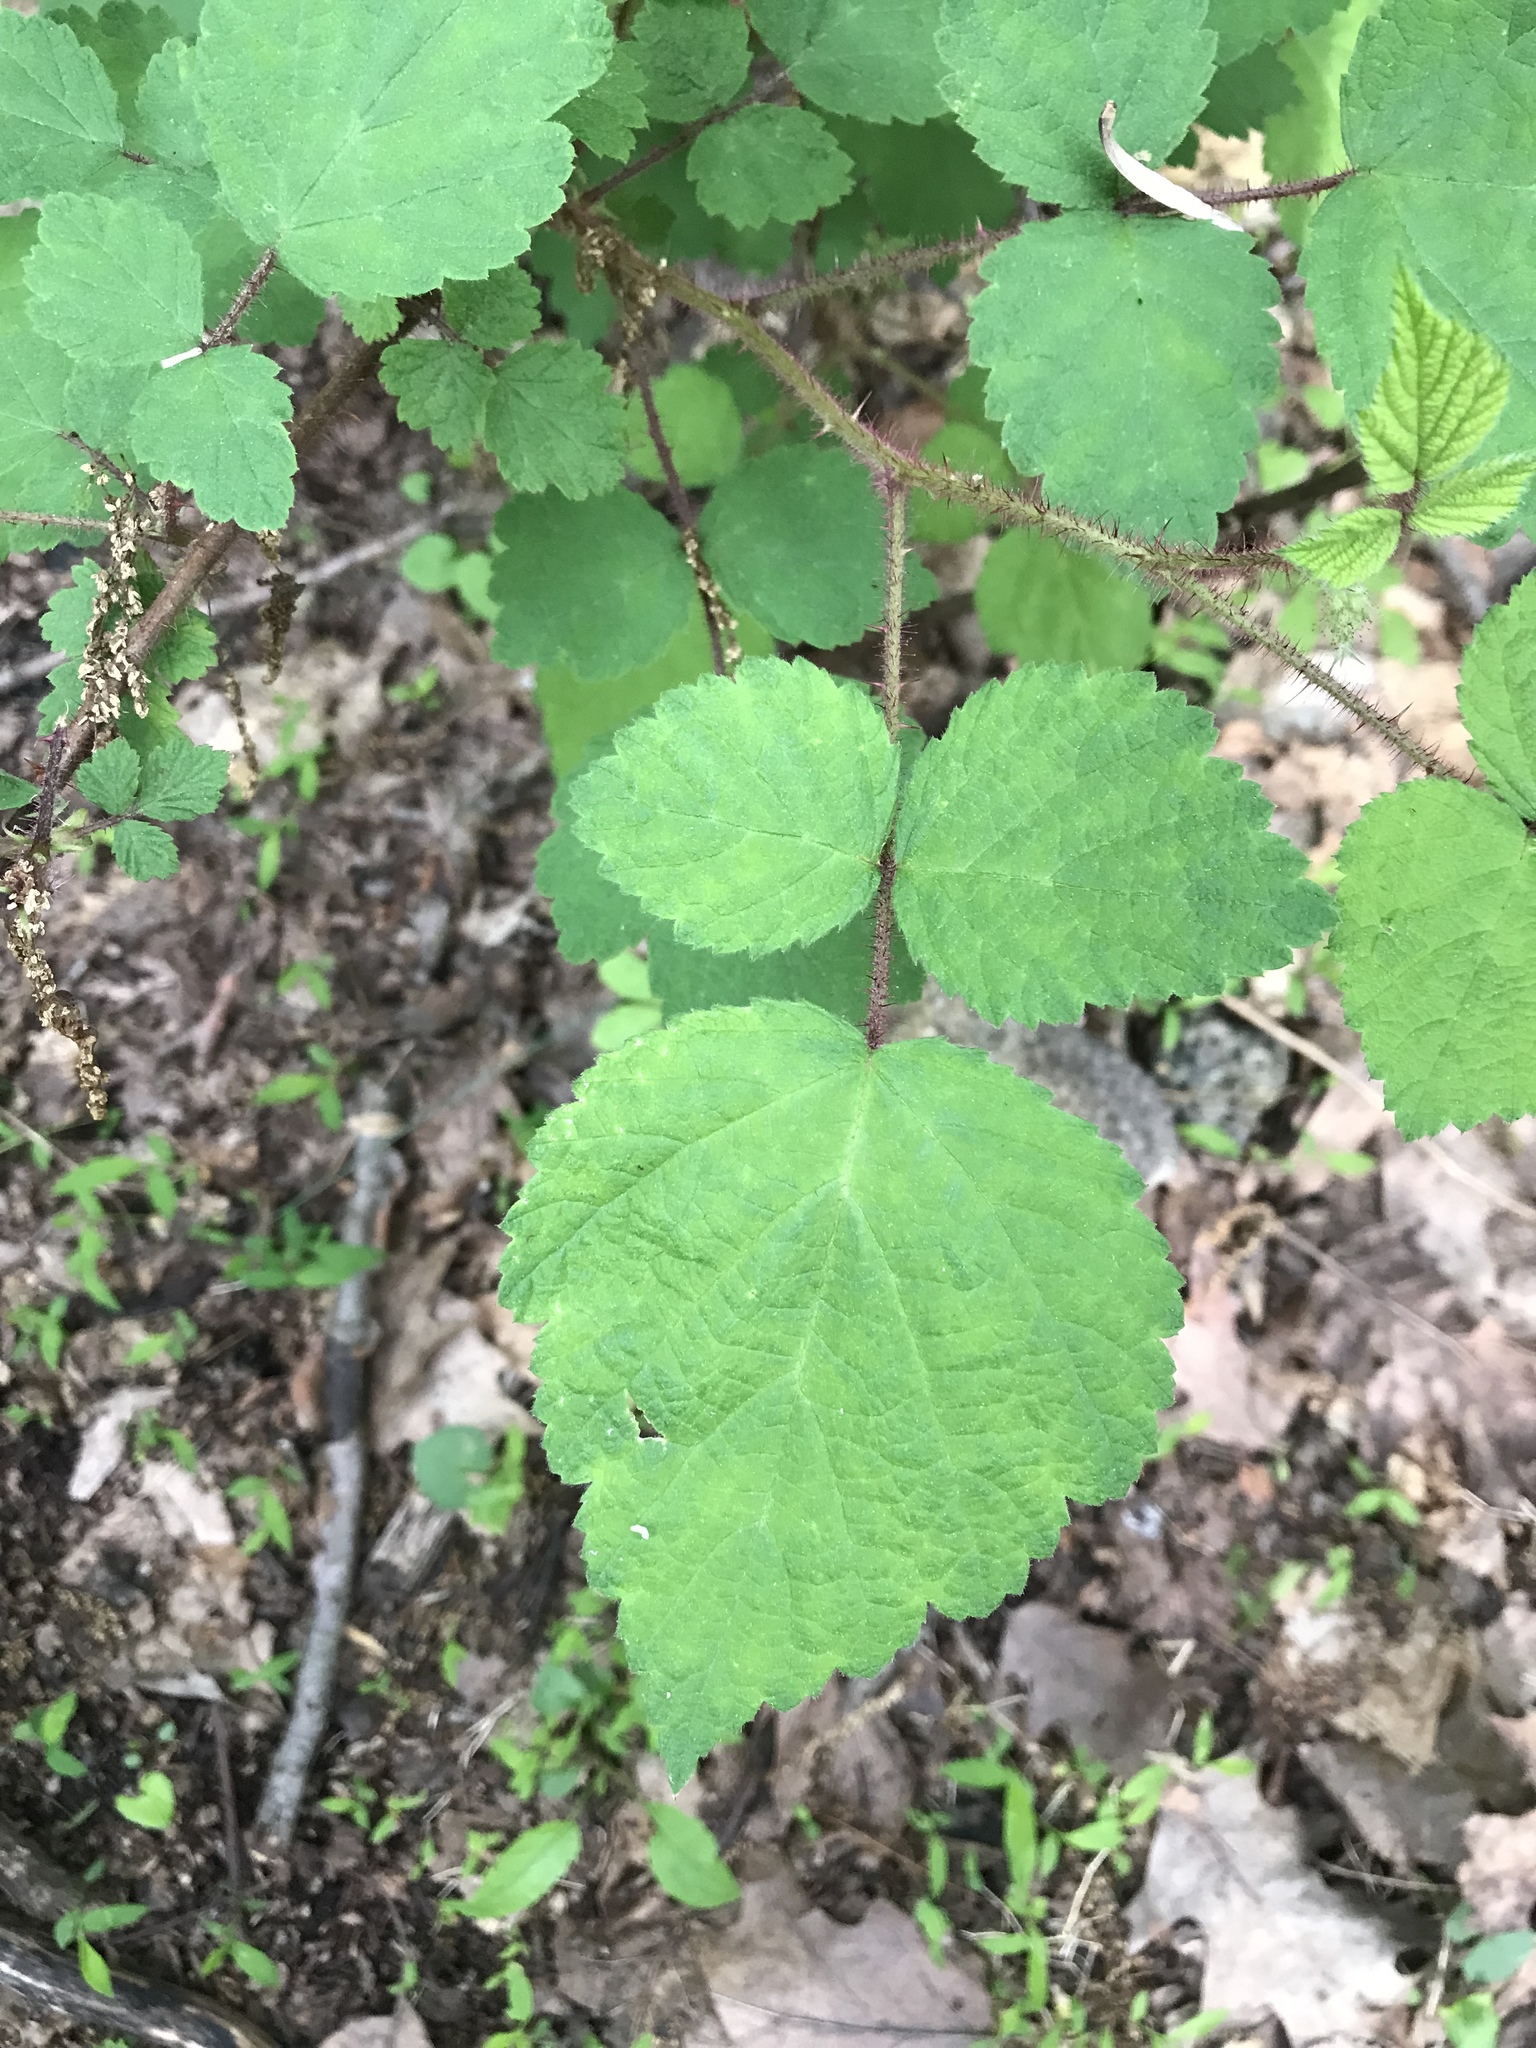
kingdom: Plantae
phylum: Tracheophyta
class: Magnoliopsida
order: Rosales
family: Rosaceae
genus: Rubus
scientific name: Rubus phoenicolasius
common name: Japanese wineberry
